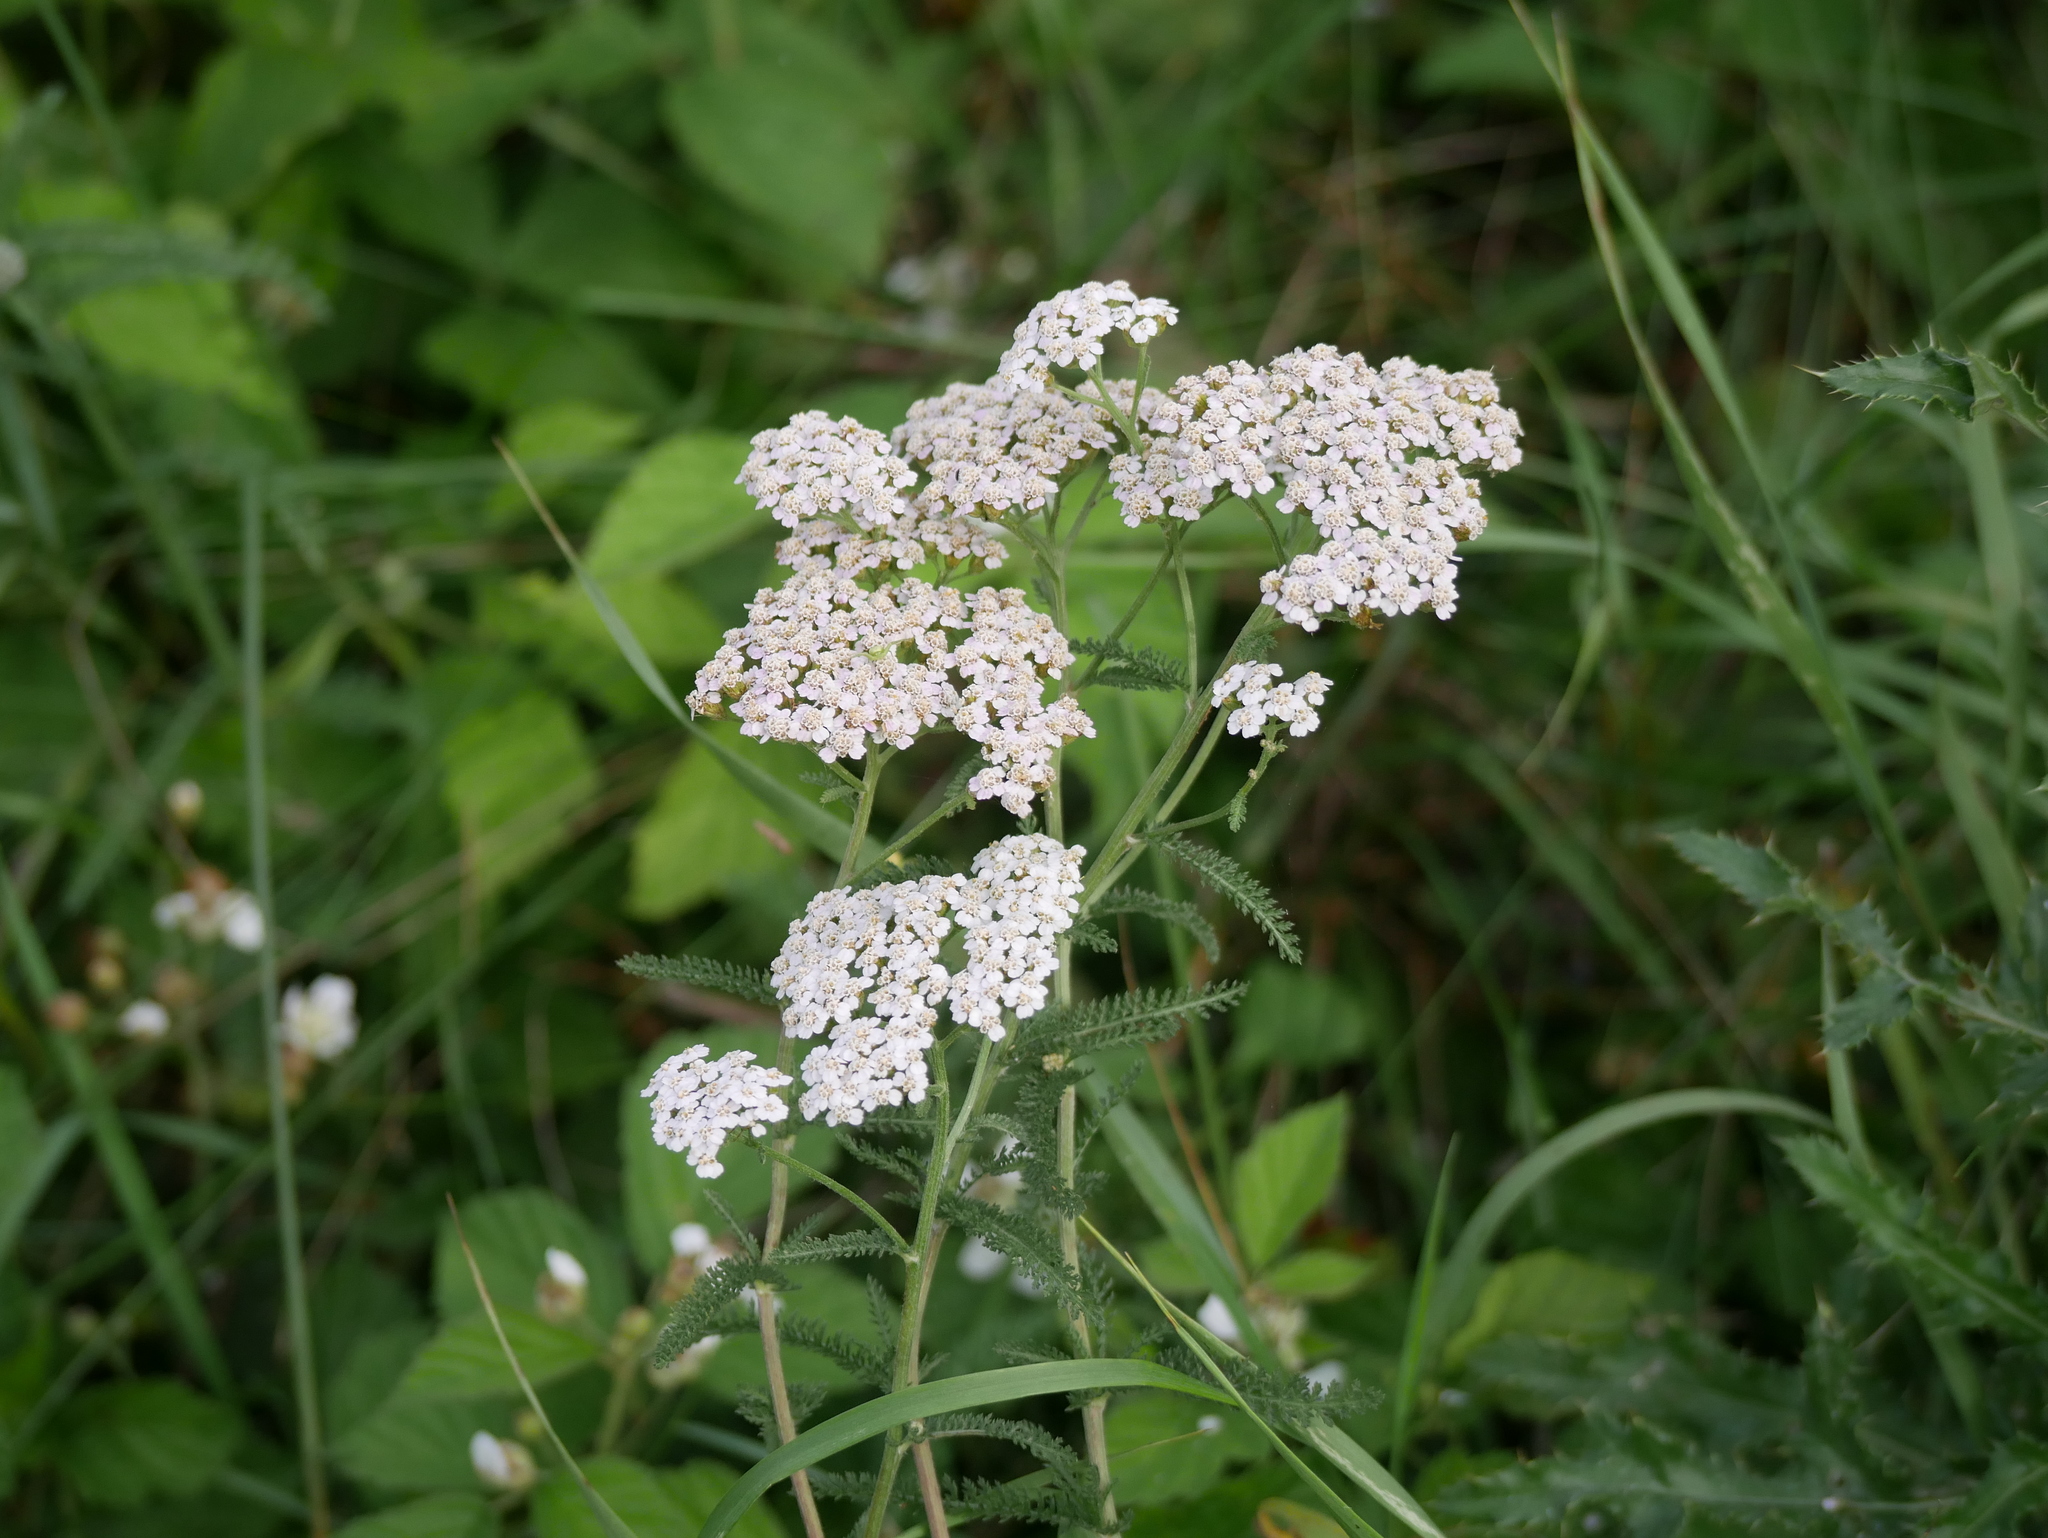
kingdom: Plantae
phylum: Tracheophyta
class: Magnoliopsida
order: Asterales
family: Asteraceae
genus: Achillea
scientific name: Achillea millefolium
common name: Yarrow
